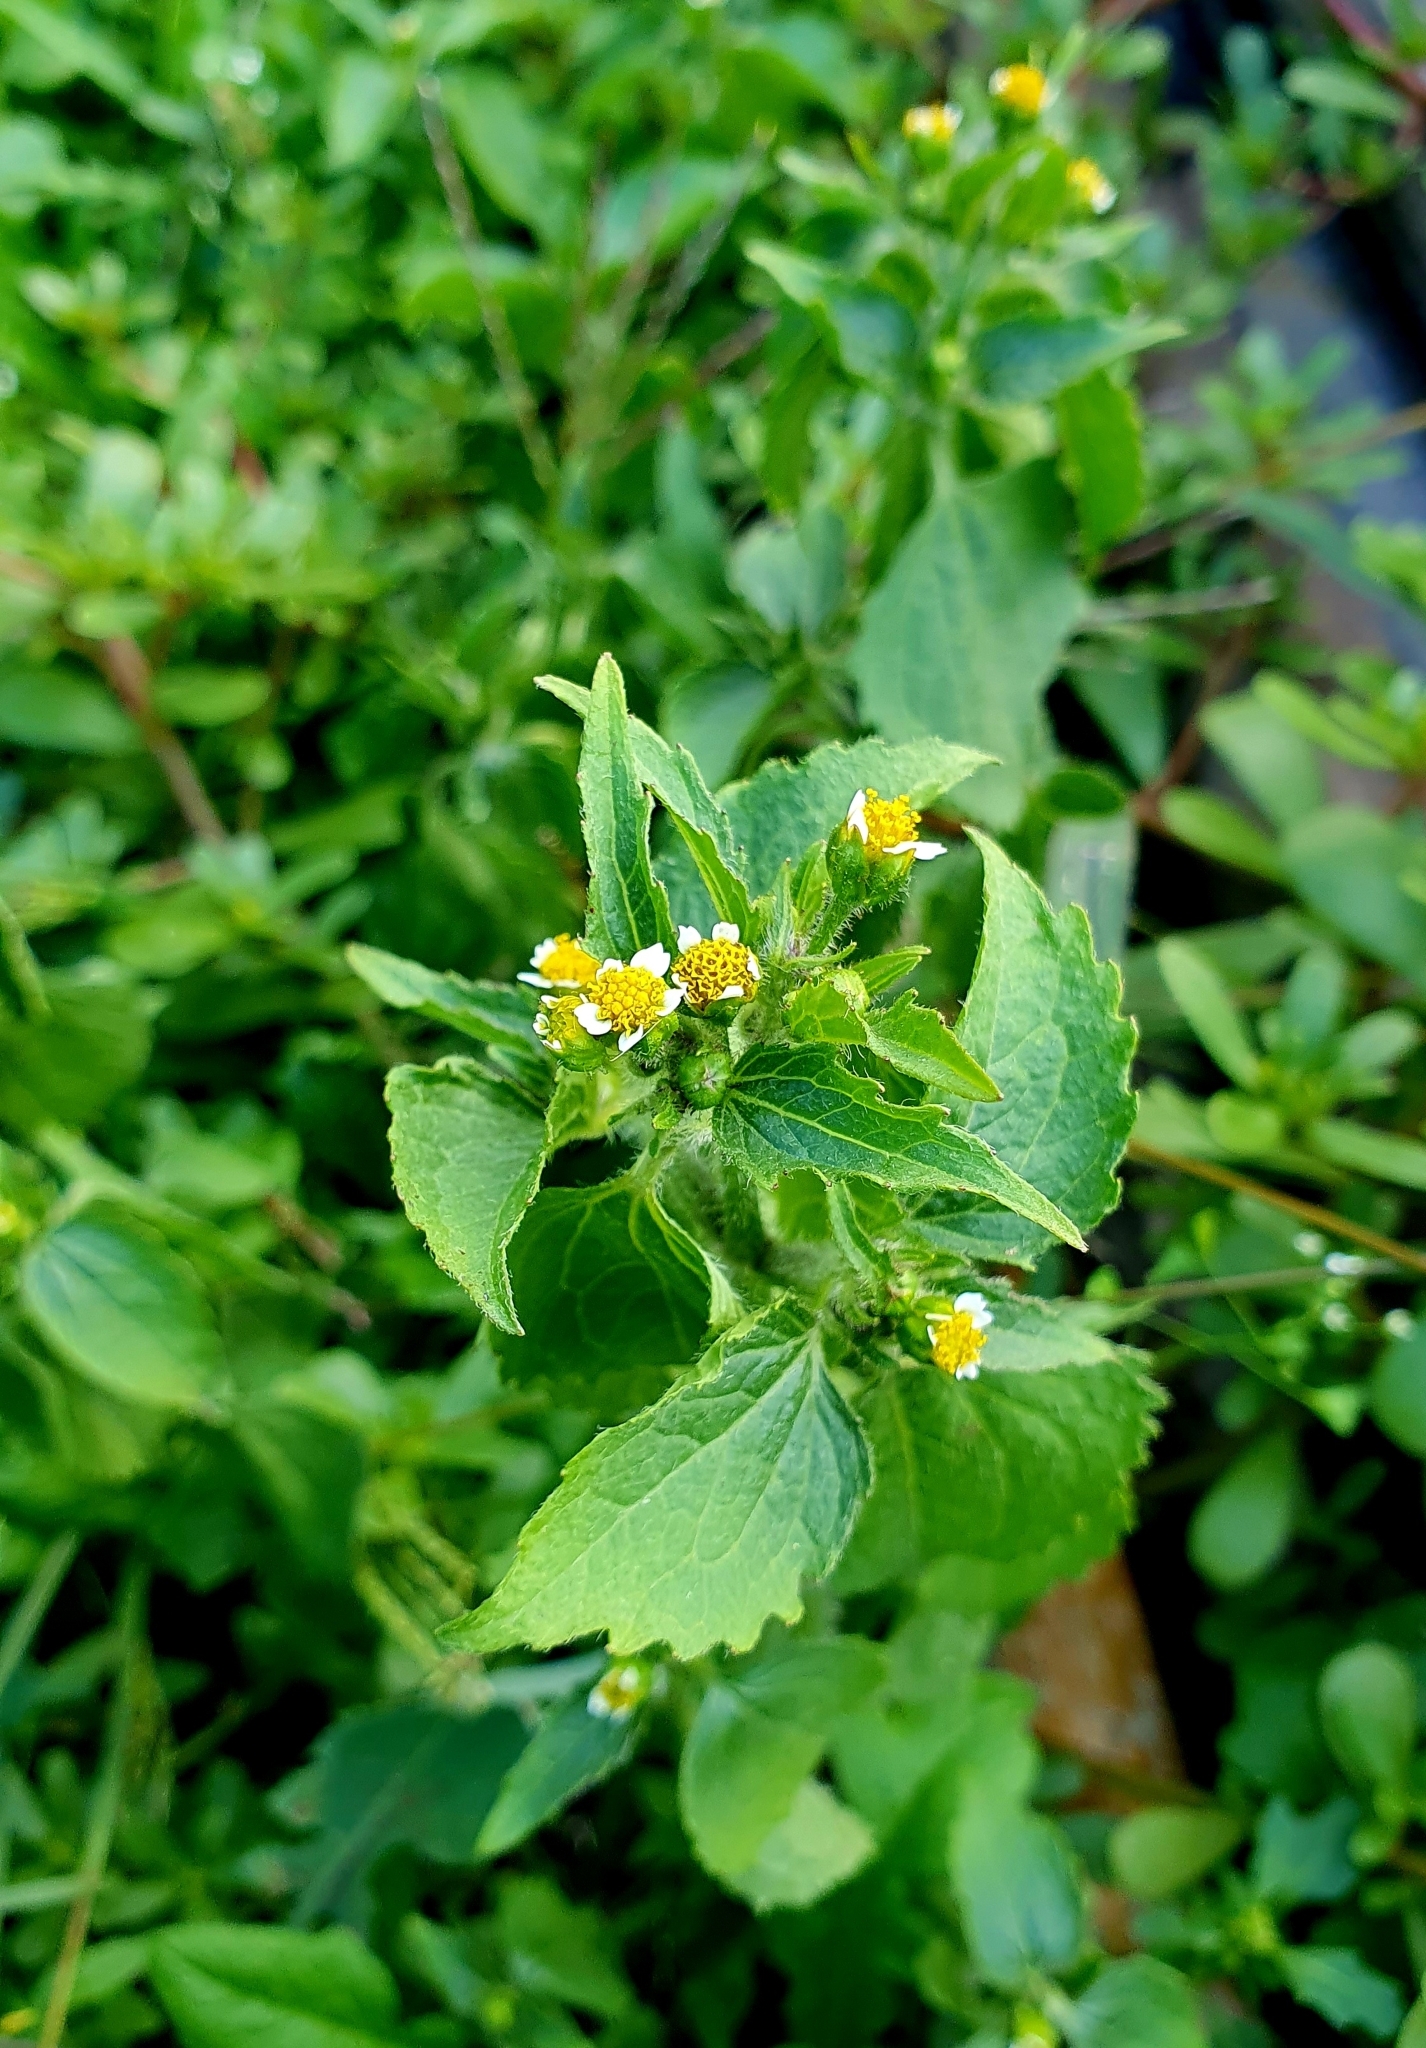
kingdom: Plantae
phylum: Tracheophyta
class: Magnoliopsida
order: Asterales
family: Asteraceae
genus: Galinsoga
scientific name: Galinsoga quadriradiata
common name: Shaggy soldier
